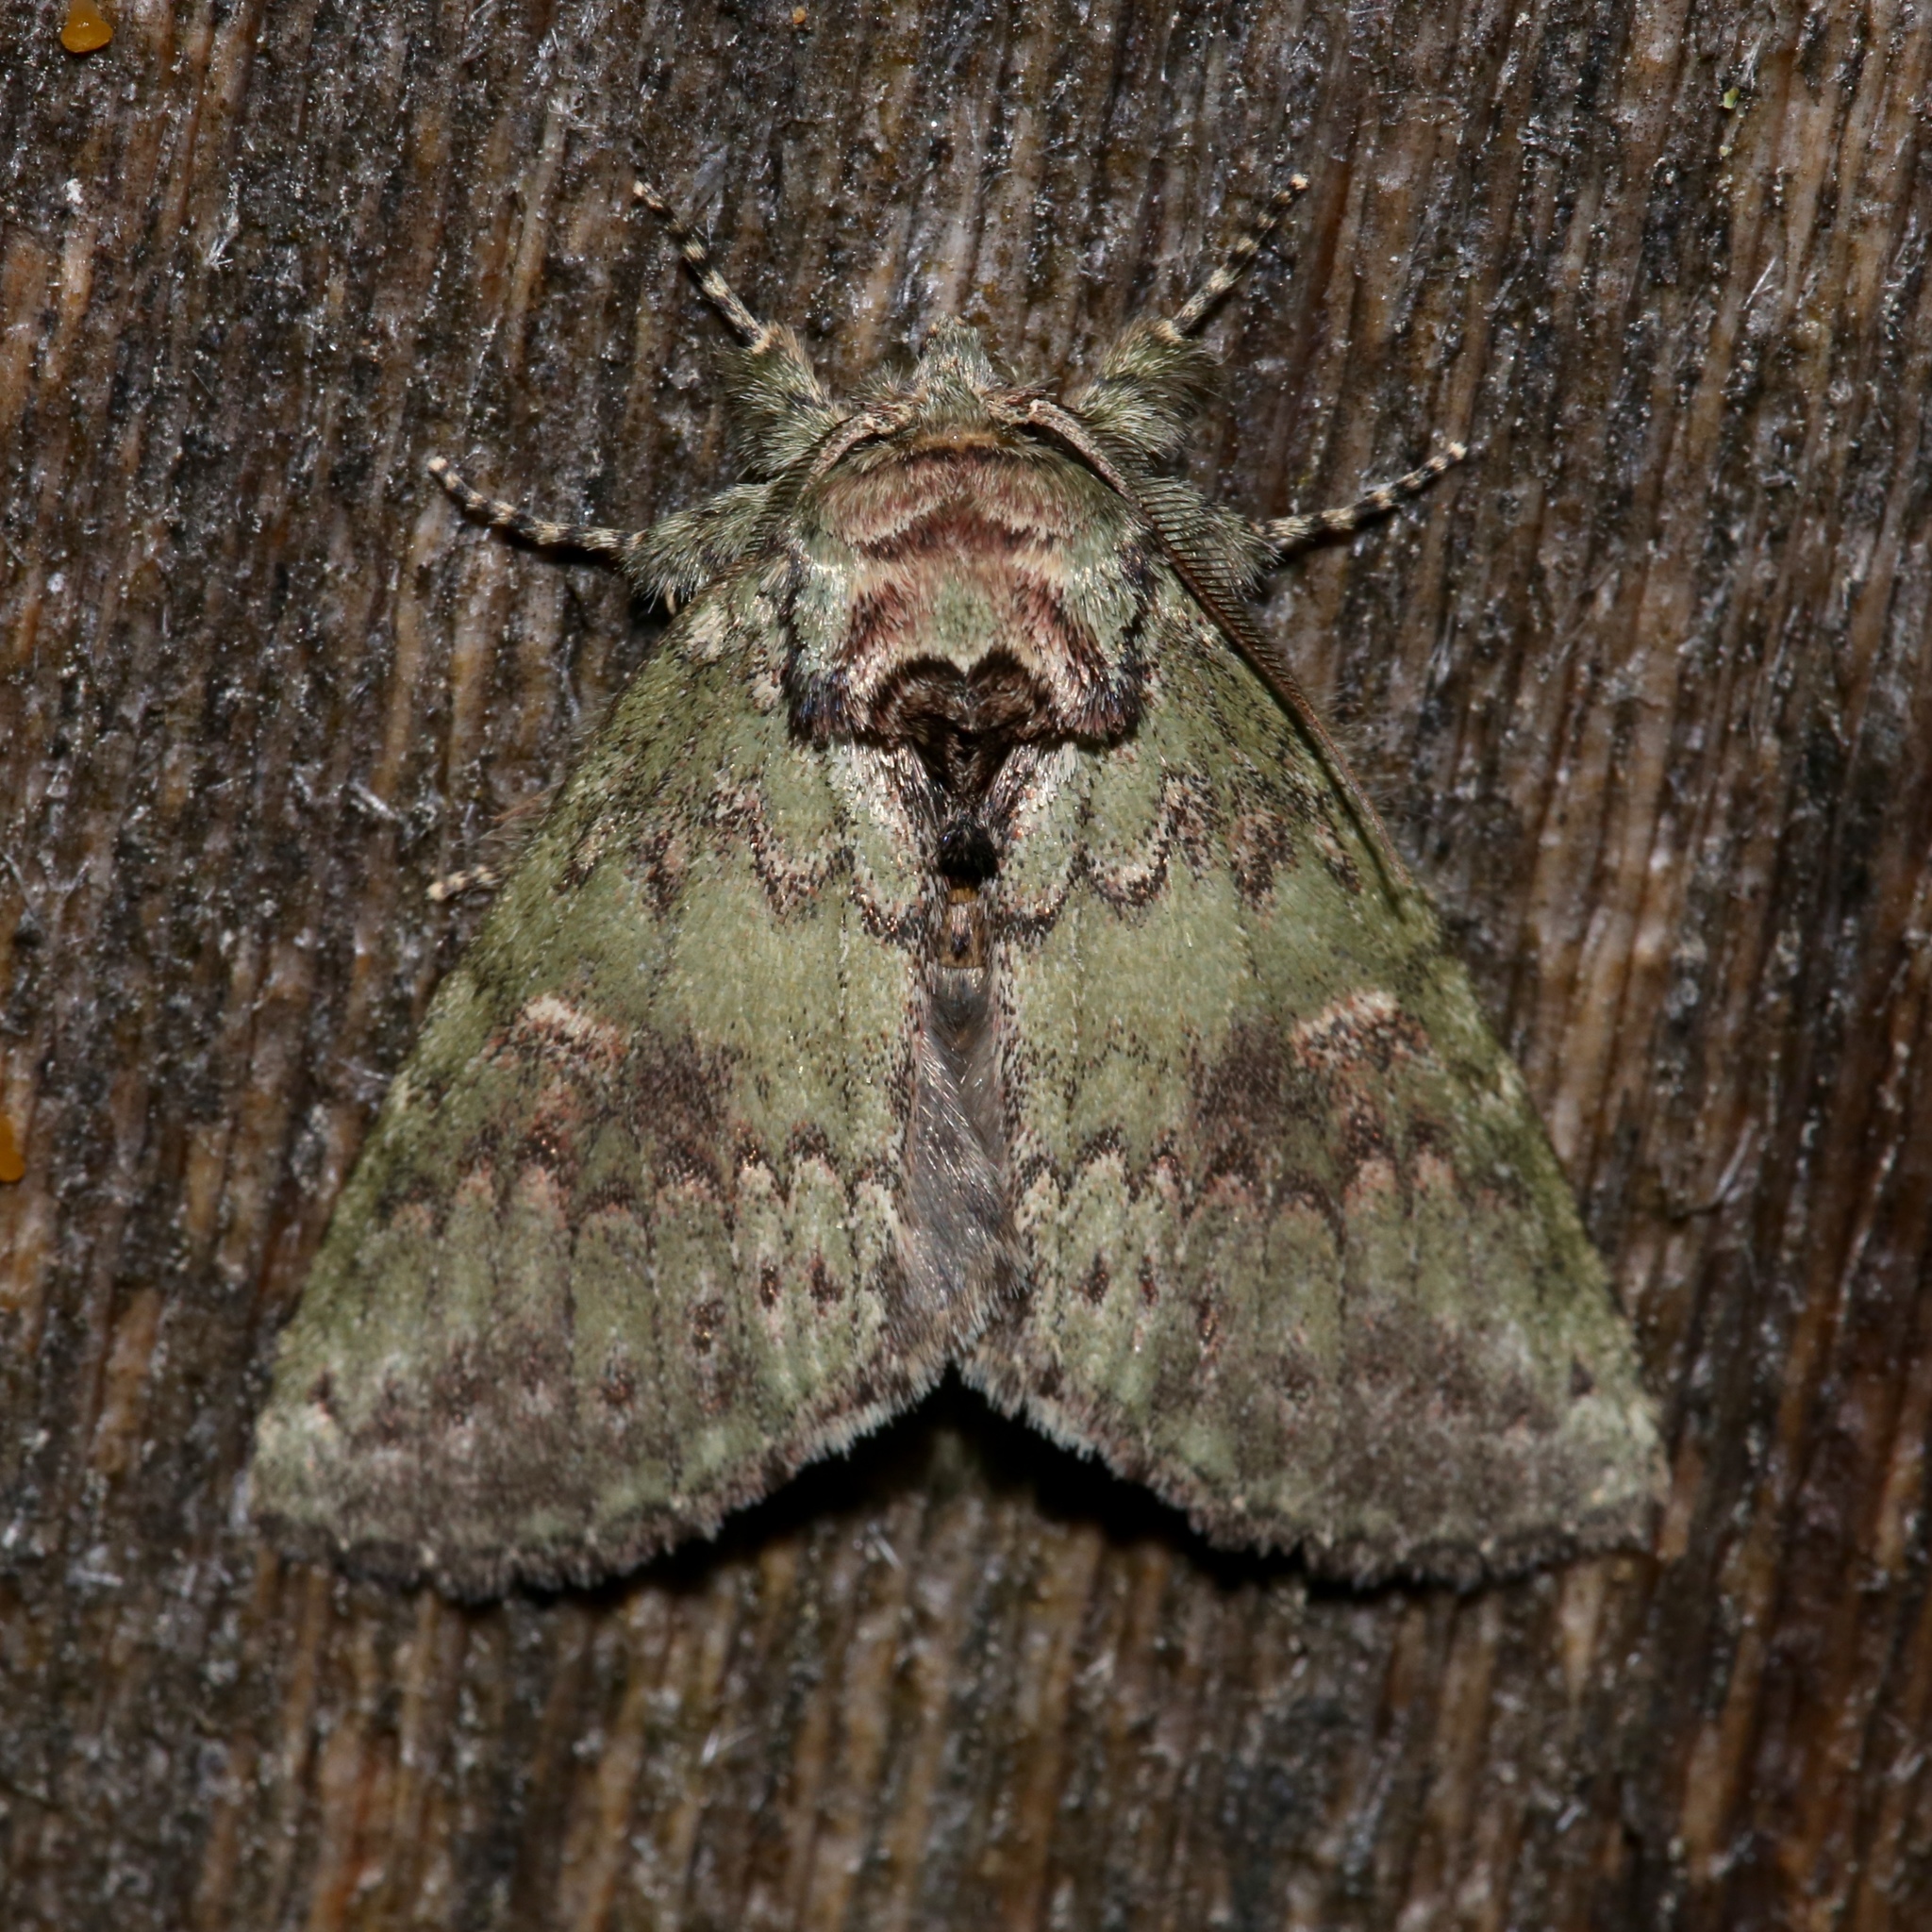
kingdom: Animalia
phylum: Arthropoda
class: Insecta
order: Lepidoptera
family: Notodontidae
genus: Disphragis
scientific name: Disphragis Cecrita biundata
